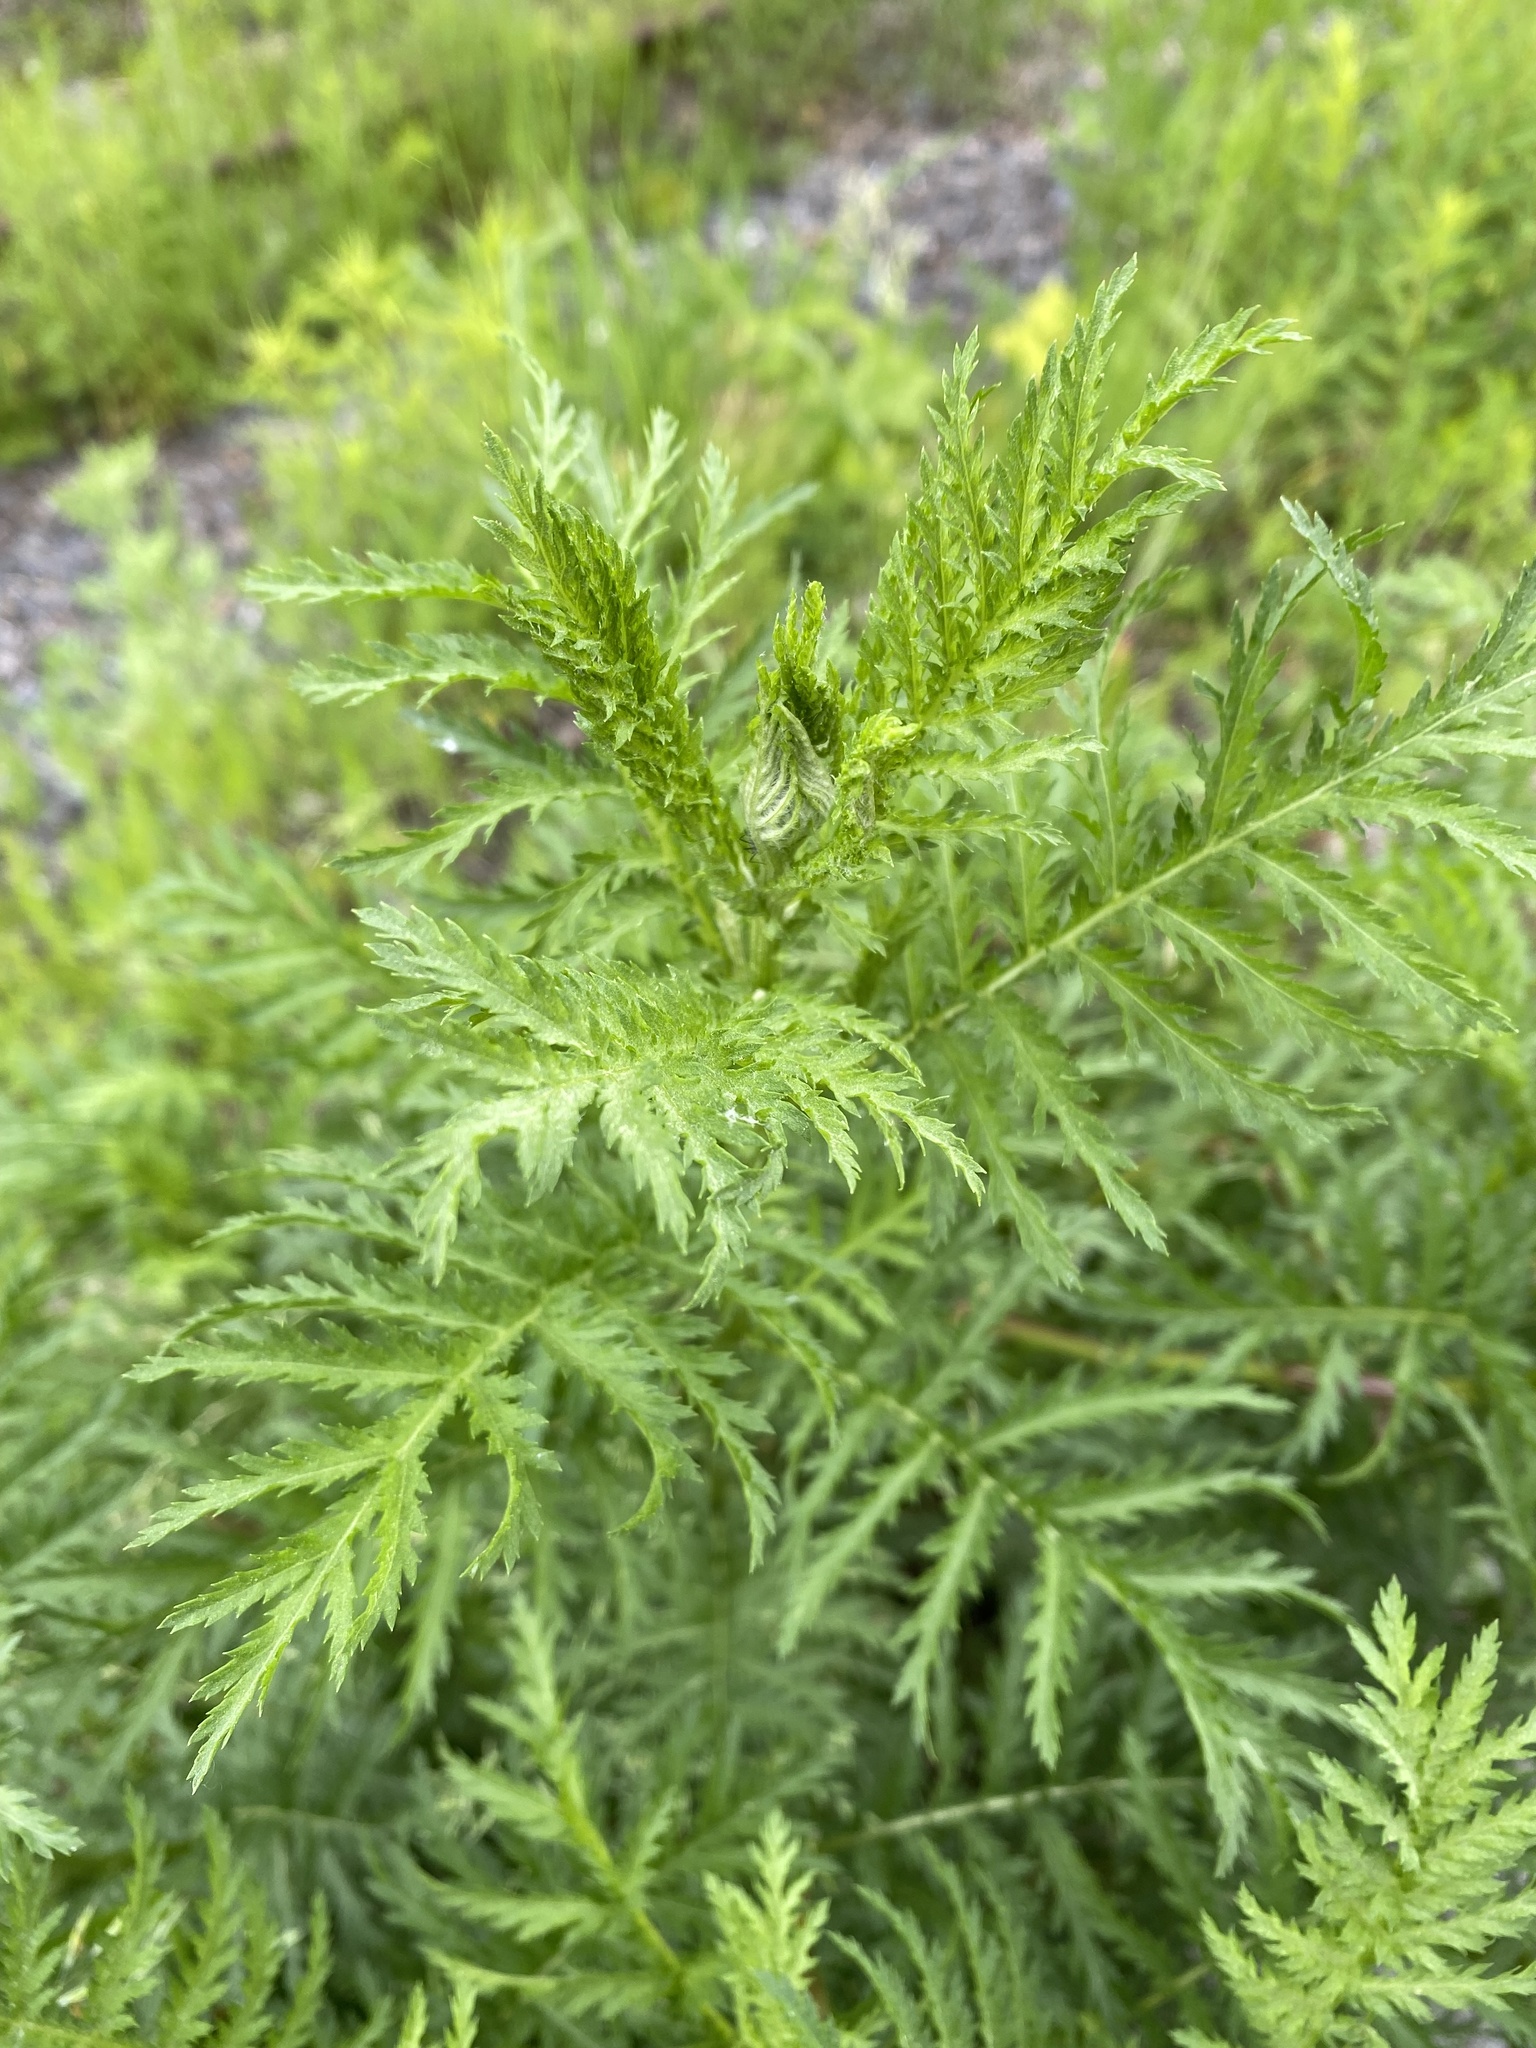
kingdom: Plantae
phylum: Tracheophyta
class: Magnoliopsida
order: Asterales
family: Asteraceae
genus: Tanacetum
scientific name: Tanacetum vulgare
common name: Common tansy
